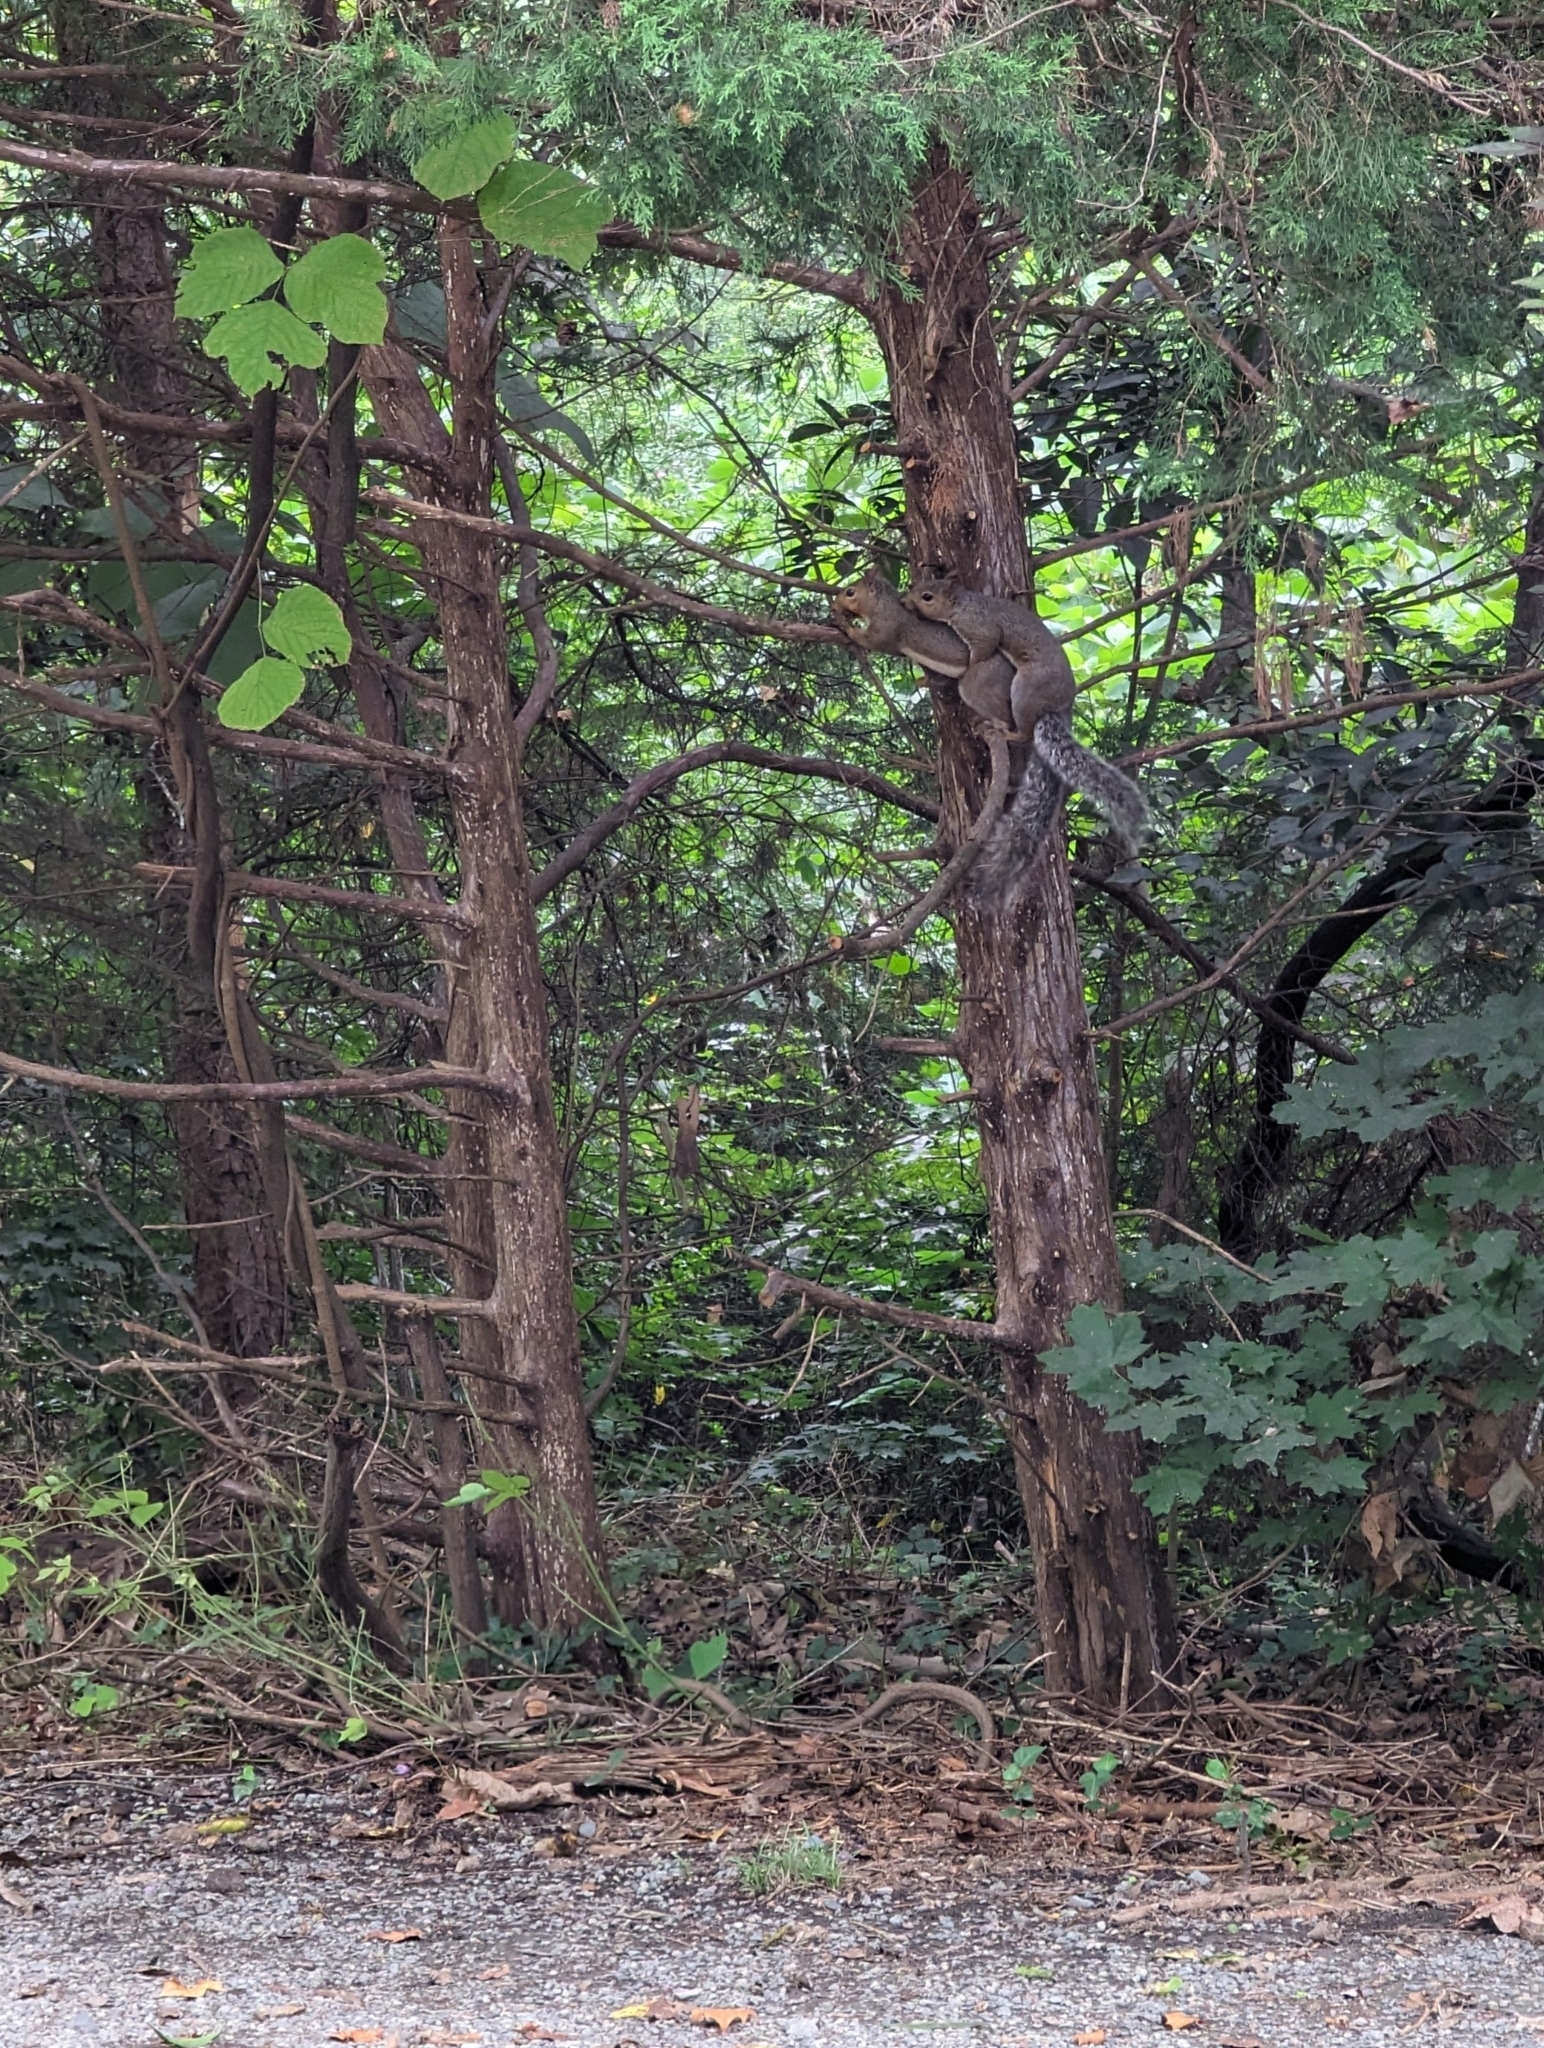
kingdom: Animalia
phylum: Chordata
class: Mammalia
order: Rodentia
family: Sciuridae
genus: Sciurus
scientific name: Sciurus carolinensis
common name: Eastern gray squirrel
